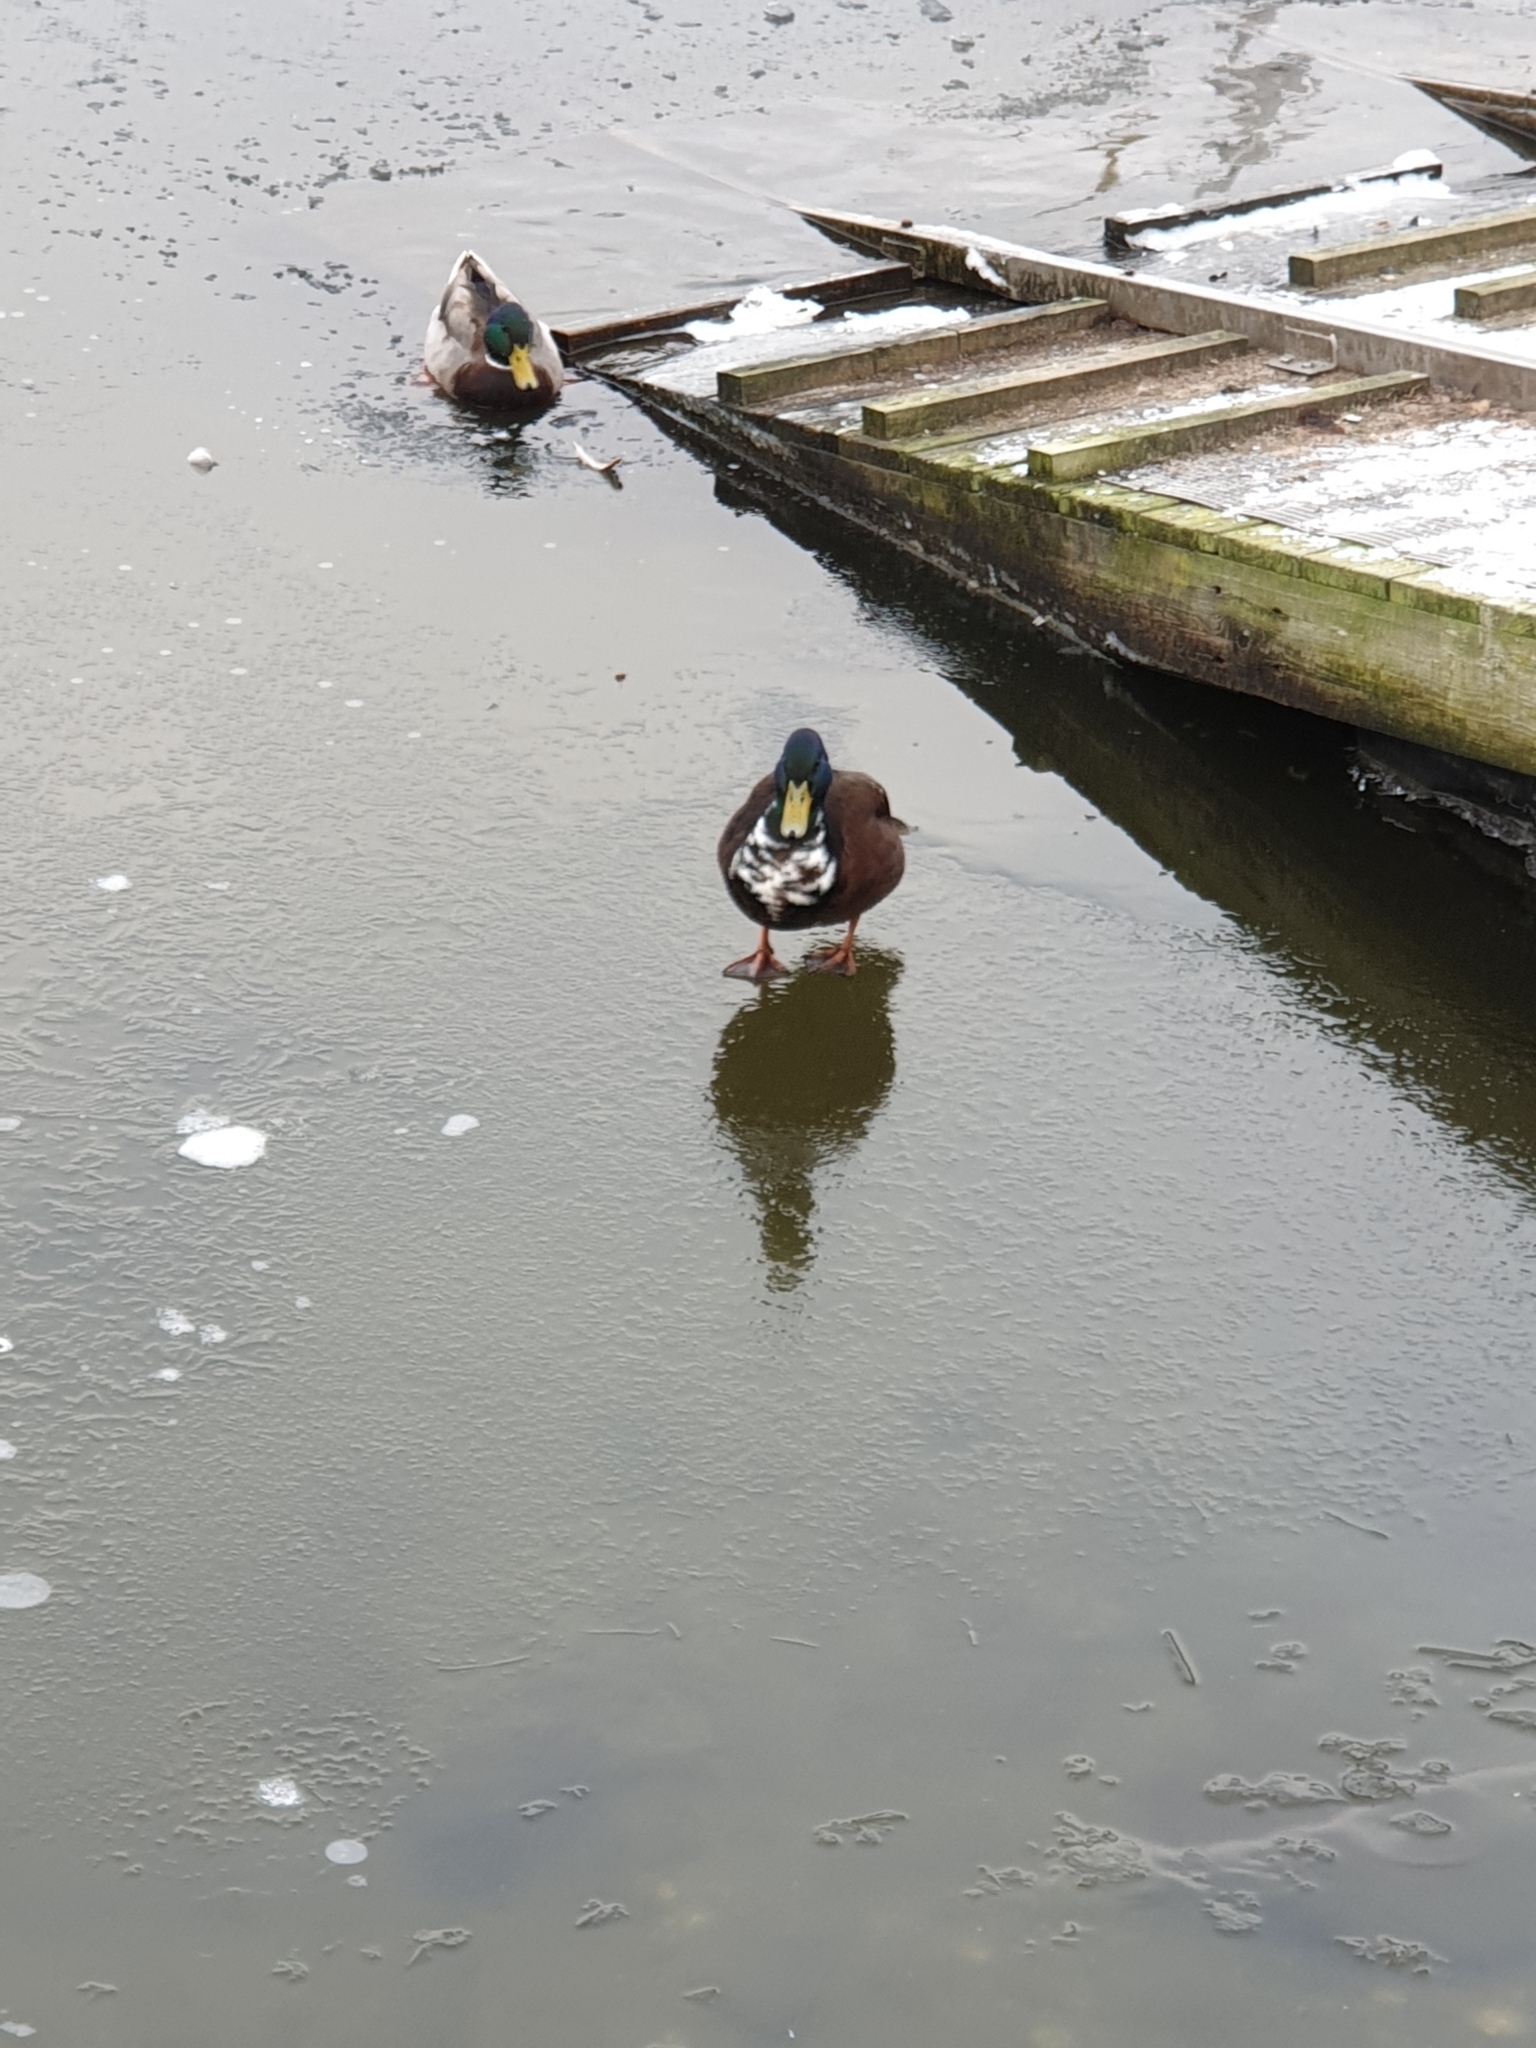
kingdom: Animalia
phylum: Chordata
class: Aves
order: Anseriformes
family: Anatidae
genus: Anas
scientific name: Anas platyrhynchos
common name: Mallard
